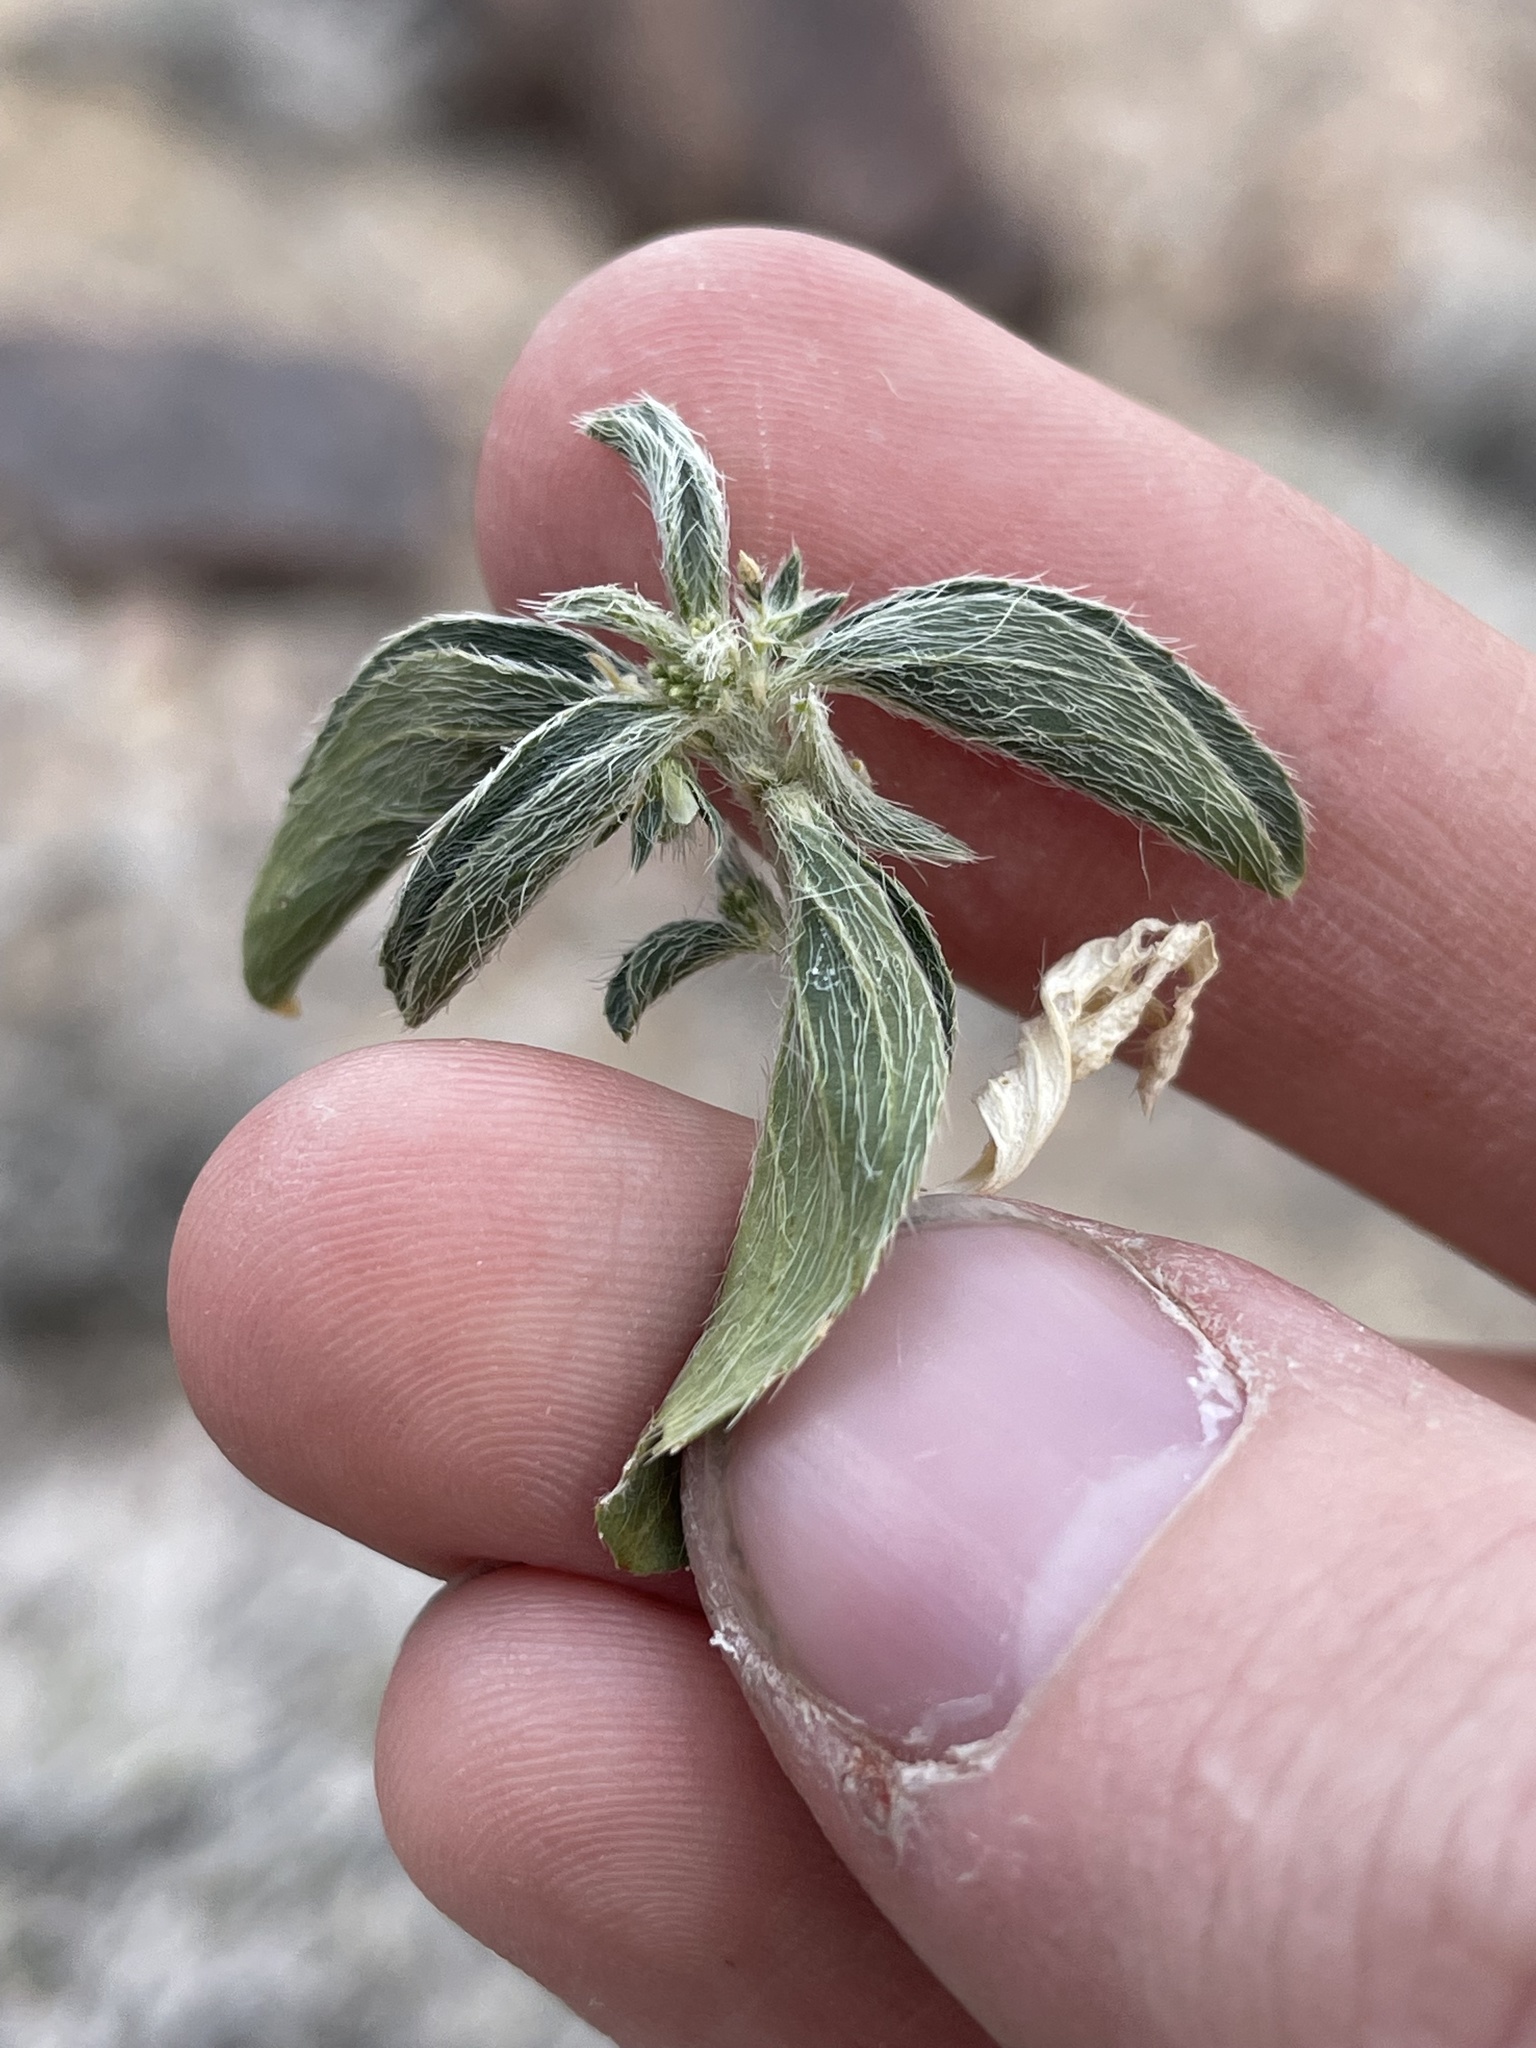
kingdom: Plantae
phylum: Tracheophyta
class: Magnoliopsida
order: Malpighiales
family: Euphorbiaceae
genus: Ditaxis
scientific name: Ditaxis serrata
